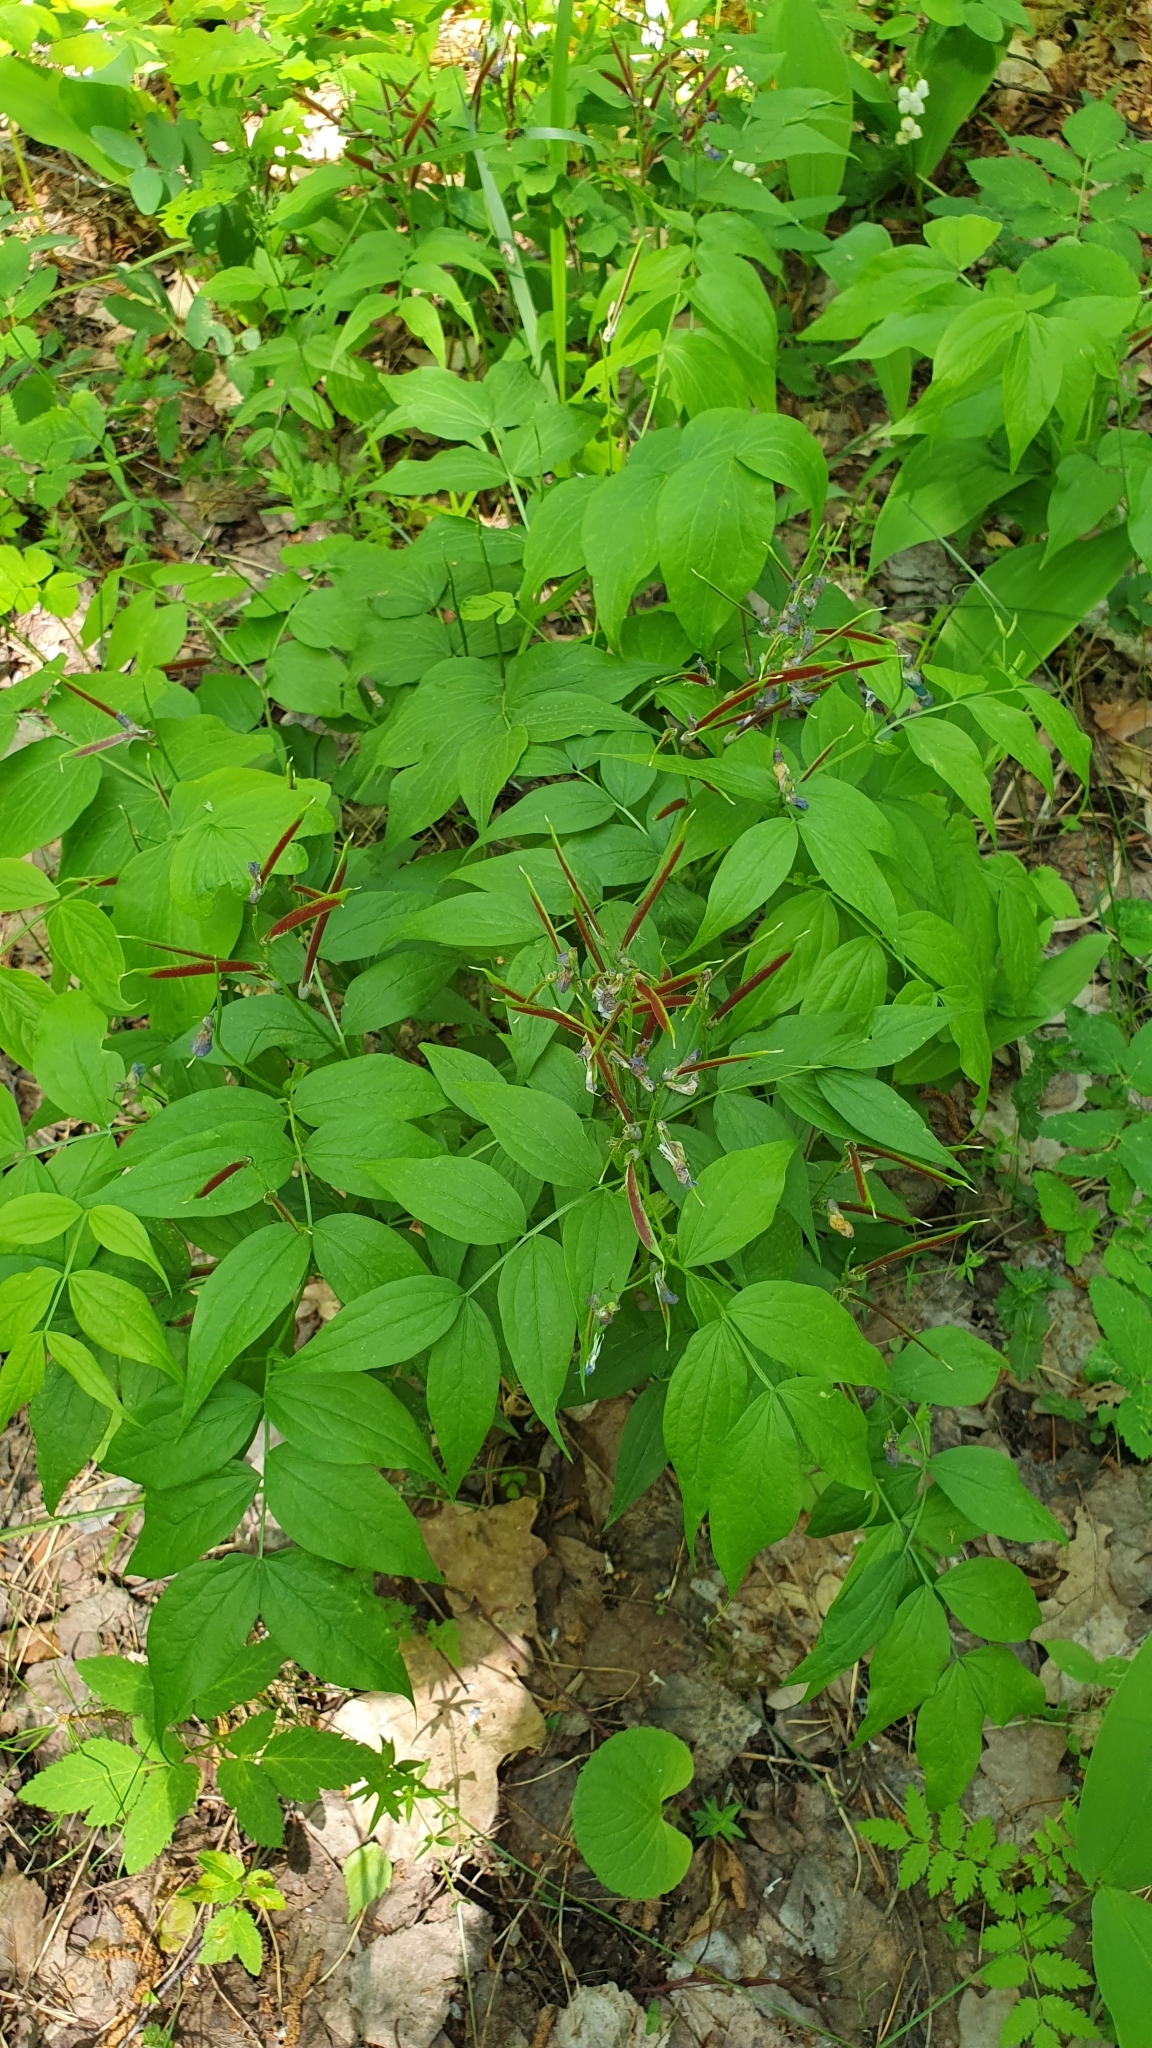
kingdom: Plantae
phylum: Tracheophyta
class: Magnoliopsida
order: Fabales
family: Fabaceae
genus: Lathyrus
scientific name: Lathyrus vernus
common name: Spring pea
